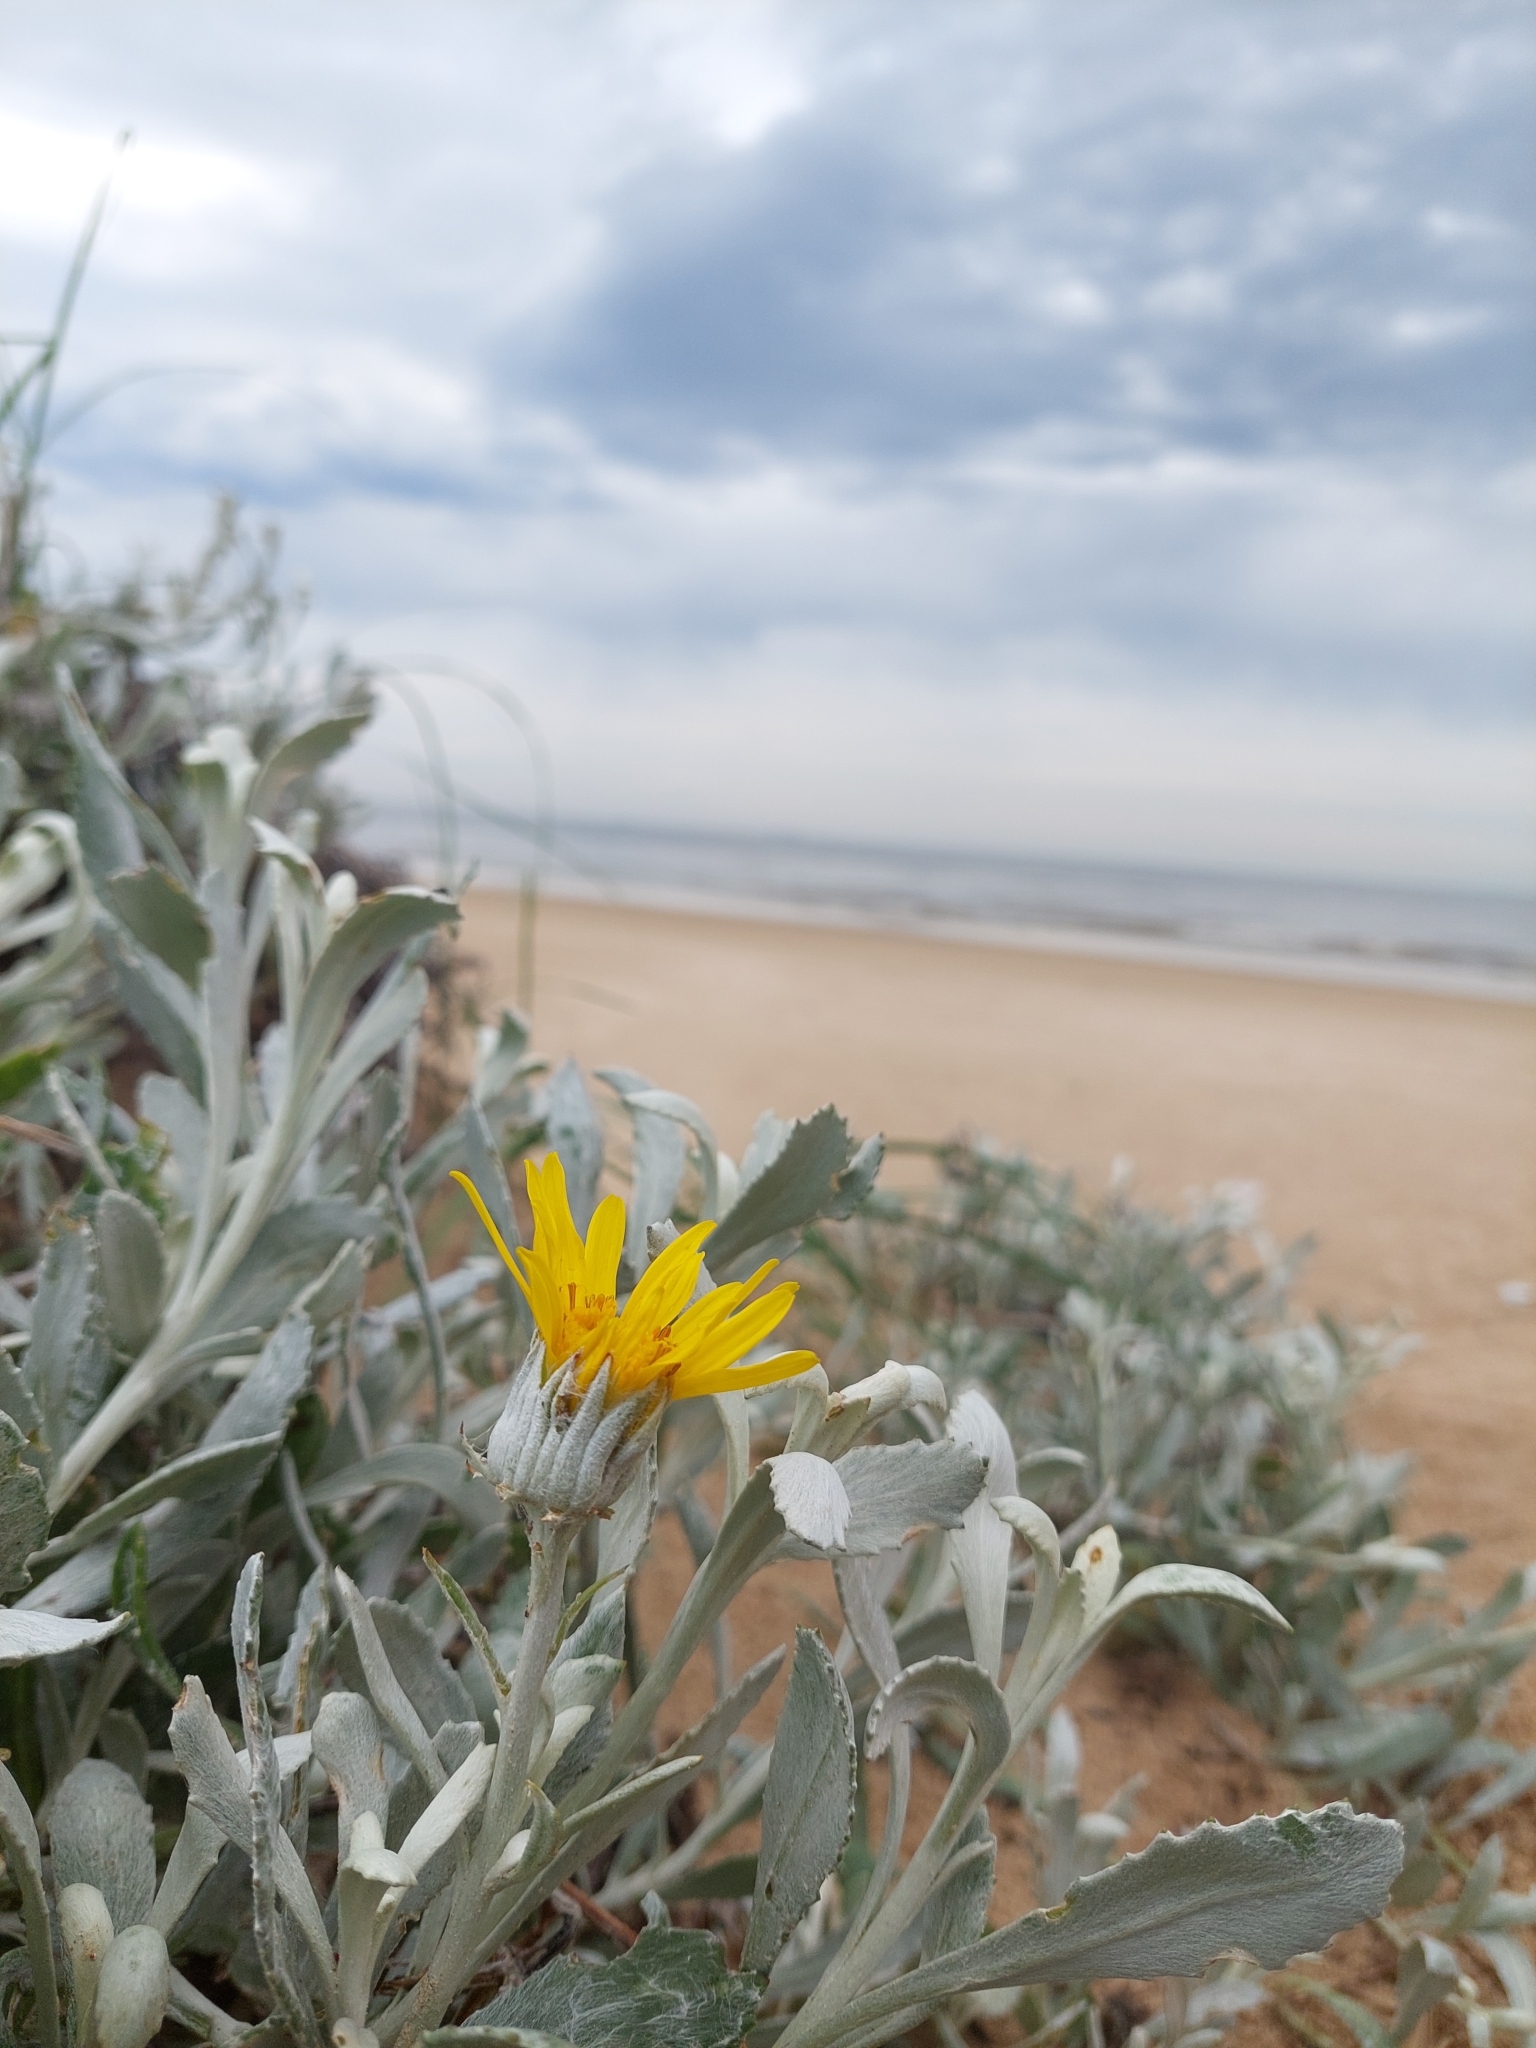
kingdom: Plantae
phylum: Tracheophyta
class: Magnoliopsida
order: Asterales
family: Asteraceae
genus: Senecio
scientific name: Senecio crassiflorus
